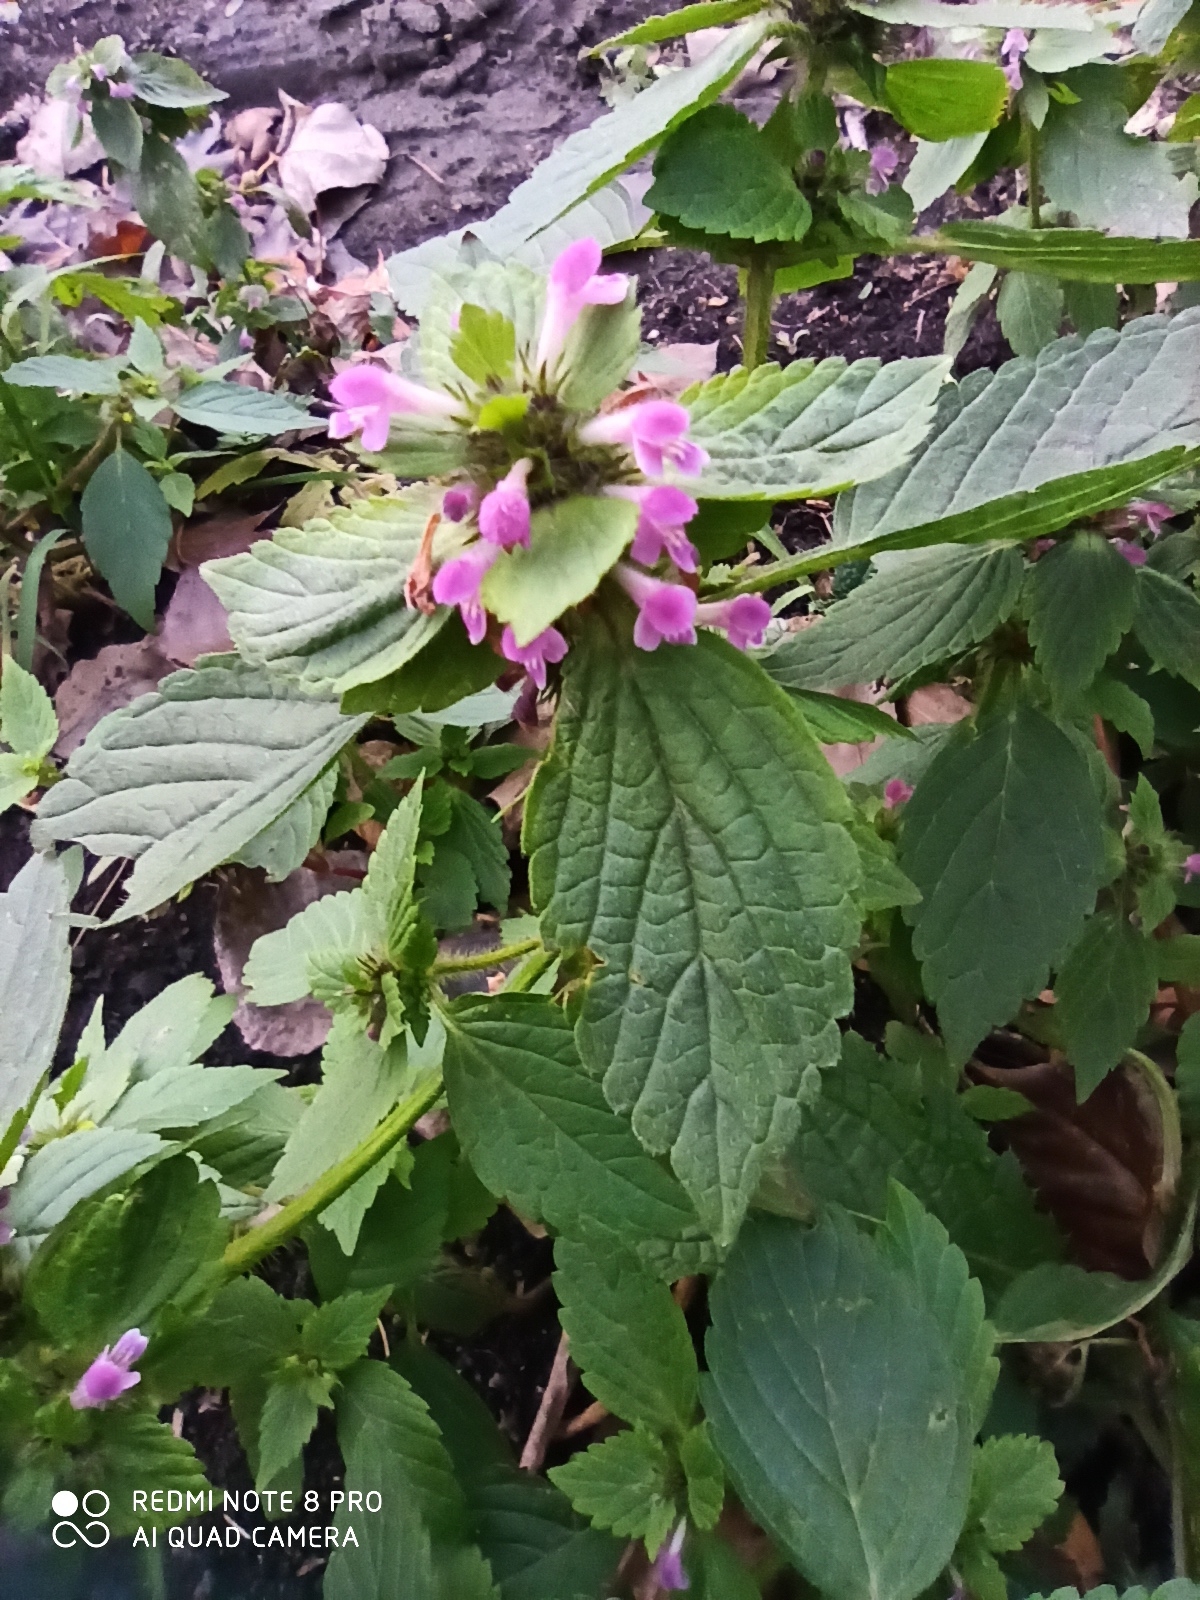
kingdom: Plantae
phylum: Tracheophyta
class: Magnoliopsida
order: Lamiales
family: Lamiaceae
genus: Galeopsis
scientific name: Galeopsis tetrahit
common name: Common hemp-nettle
